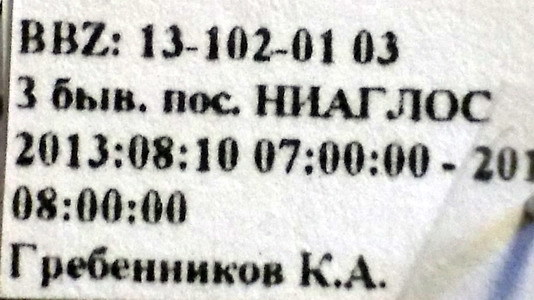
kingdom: Animalia
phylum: Arthropoda
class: Insecta
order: Hemiptera
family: Oxycarenidae
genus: Oxycarenus
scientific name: Oxycarenus pallens
